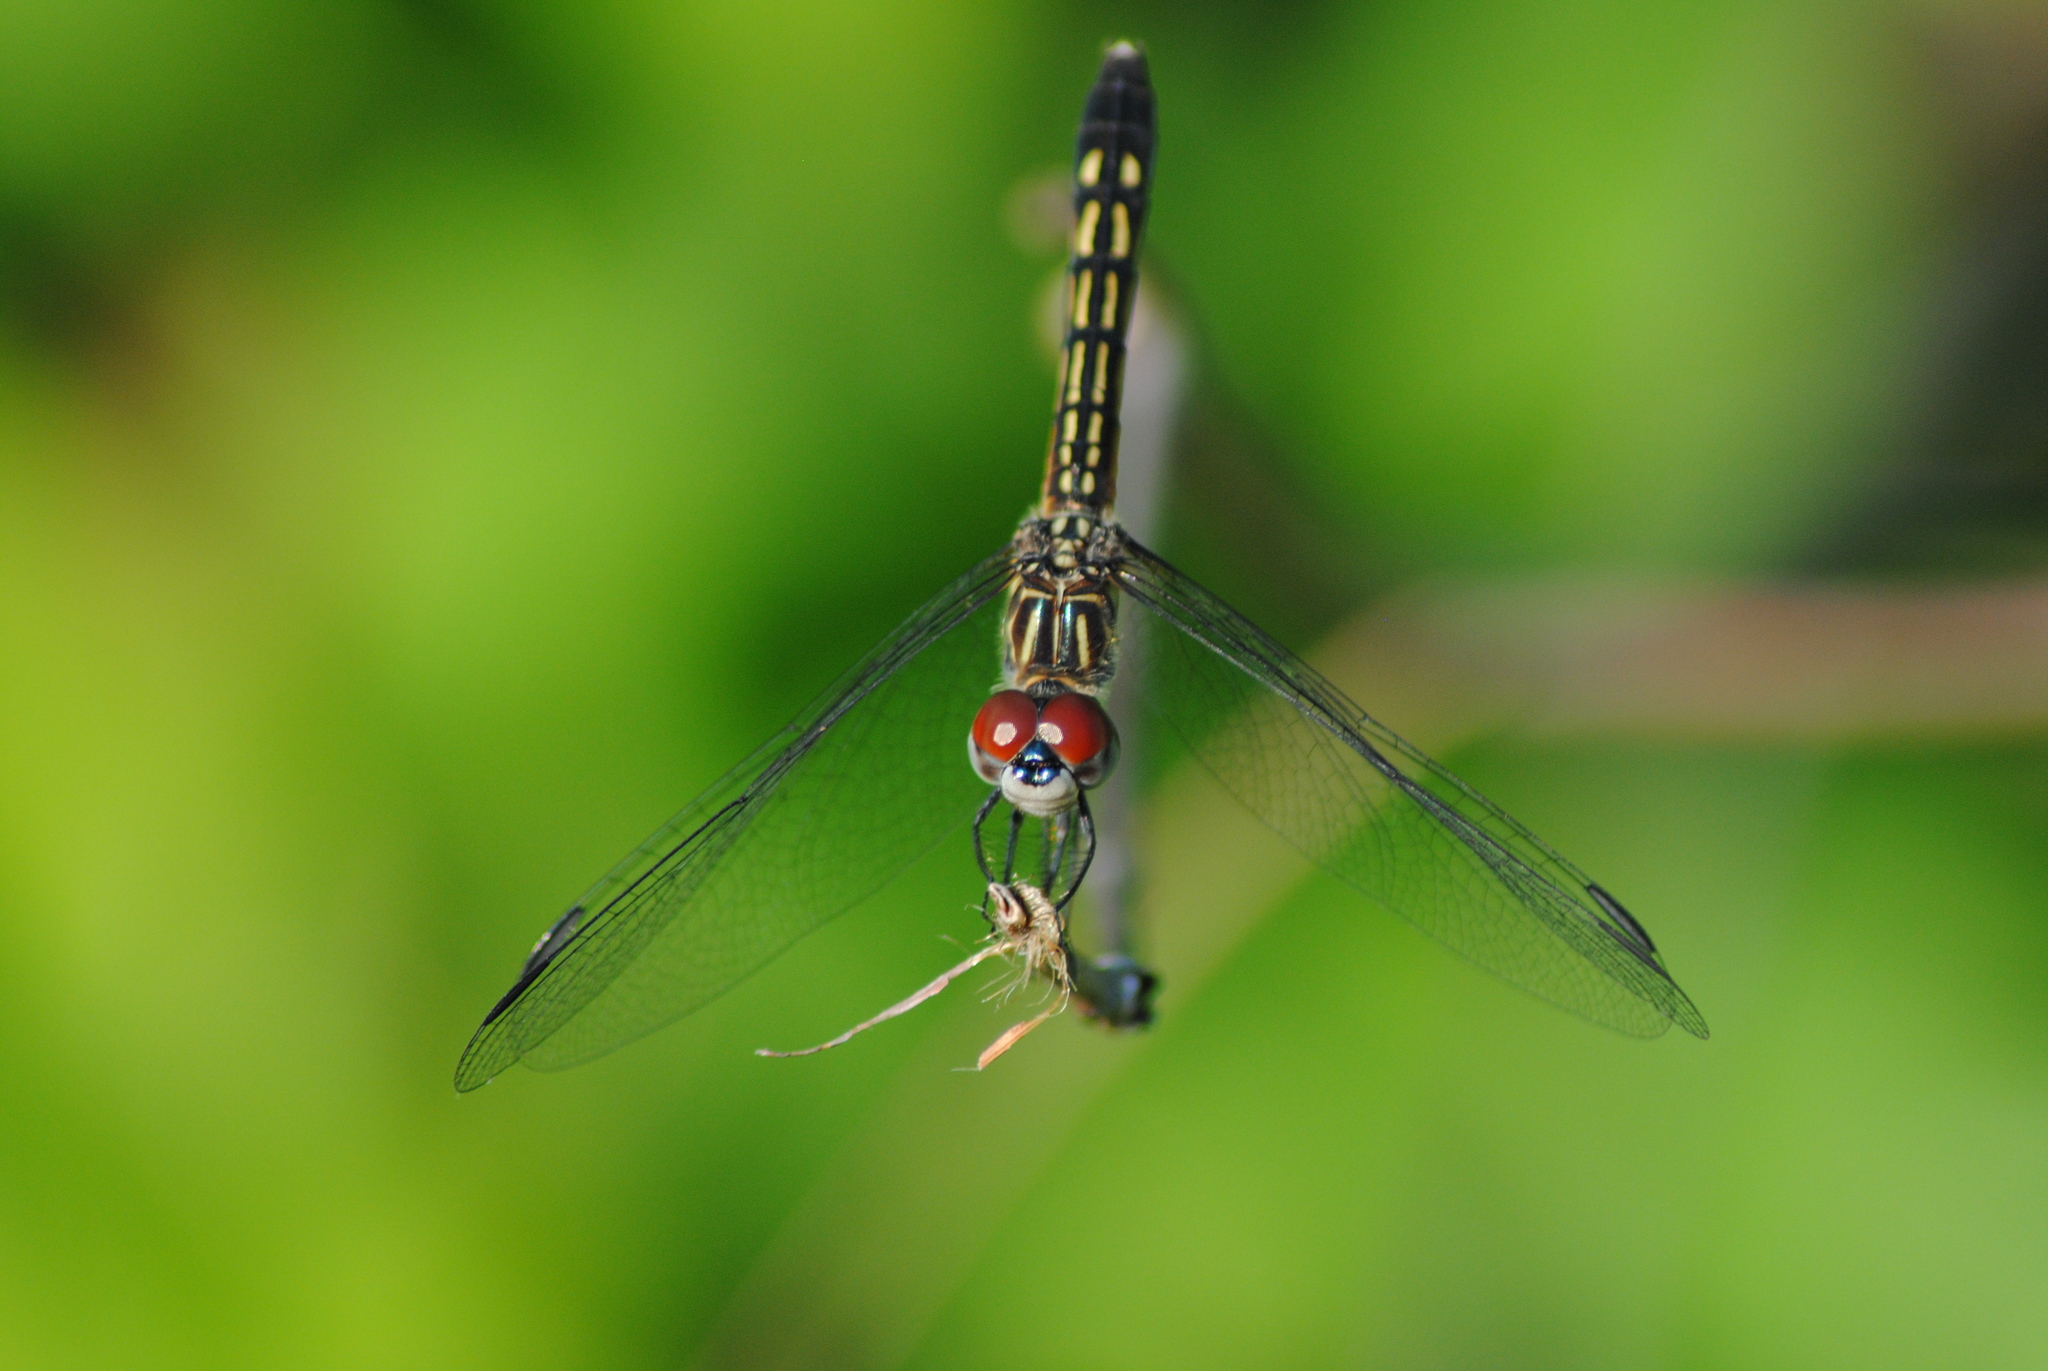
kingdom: Animalia
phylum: Arthropoda
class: Insecta
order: Odonata
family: Libellulidae
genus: Pachydiplax
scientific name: Pachydiplax longipennis
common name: Blue dasher
